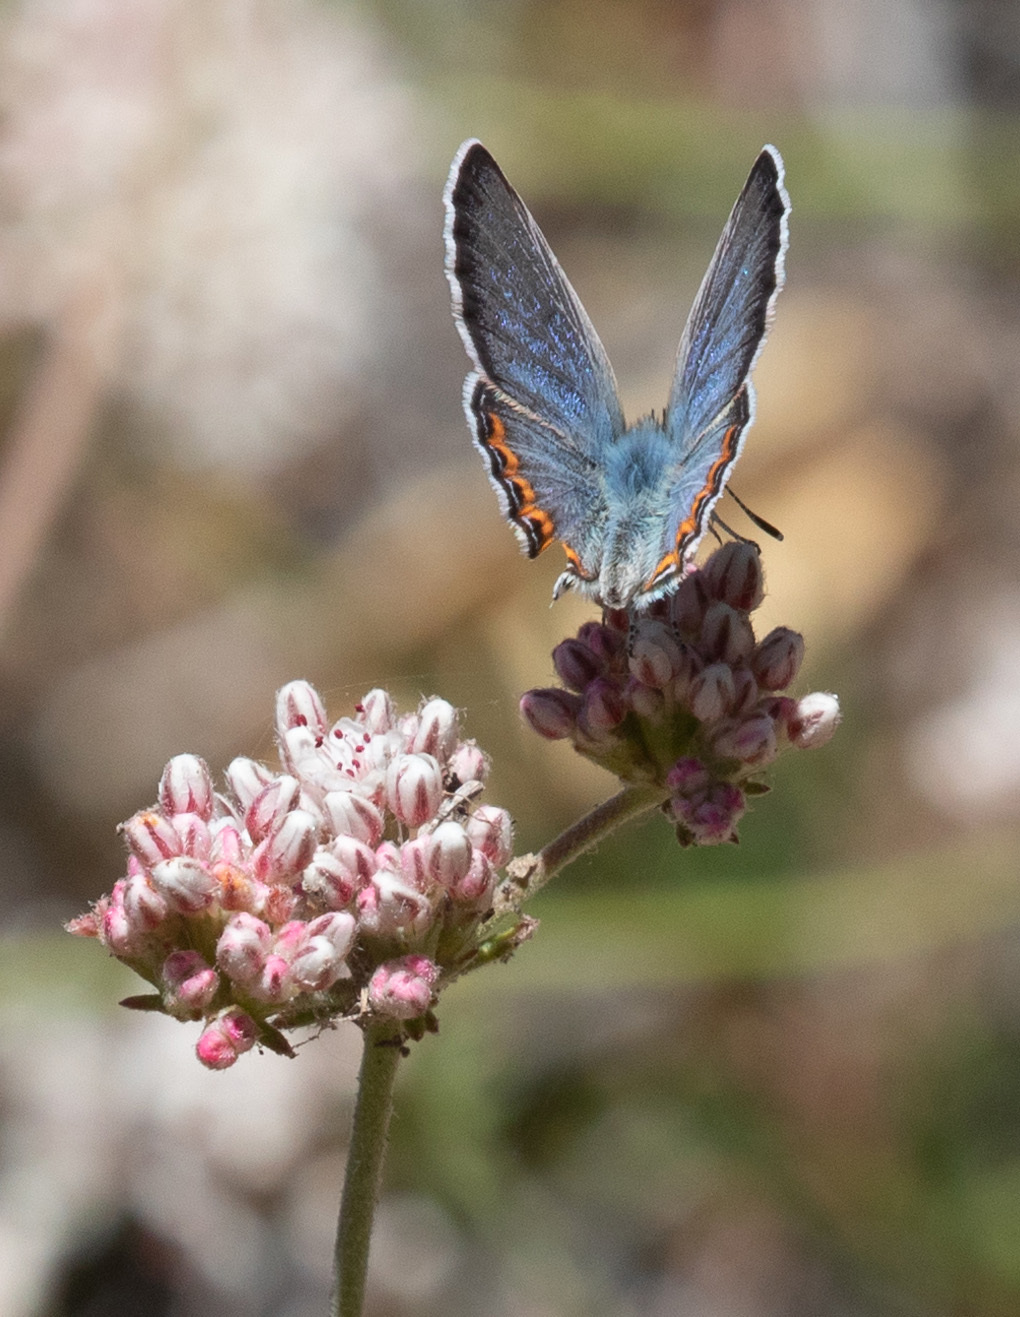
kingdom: Animalia
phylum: Arthropoda
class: Insecta
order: Lepidoptera
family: Lycaenidae
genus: Icaricia
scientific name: Icaricia lupini
